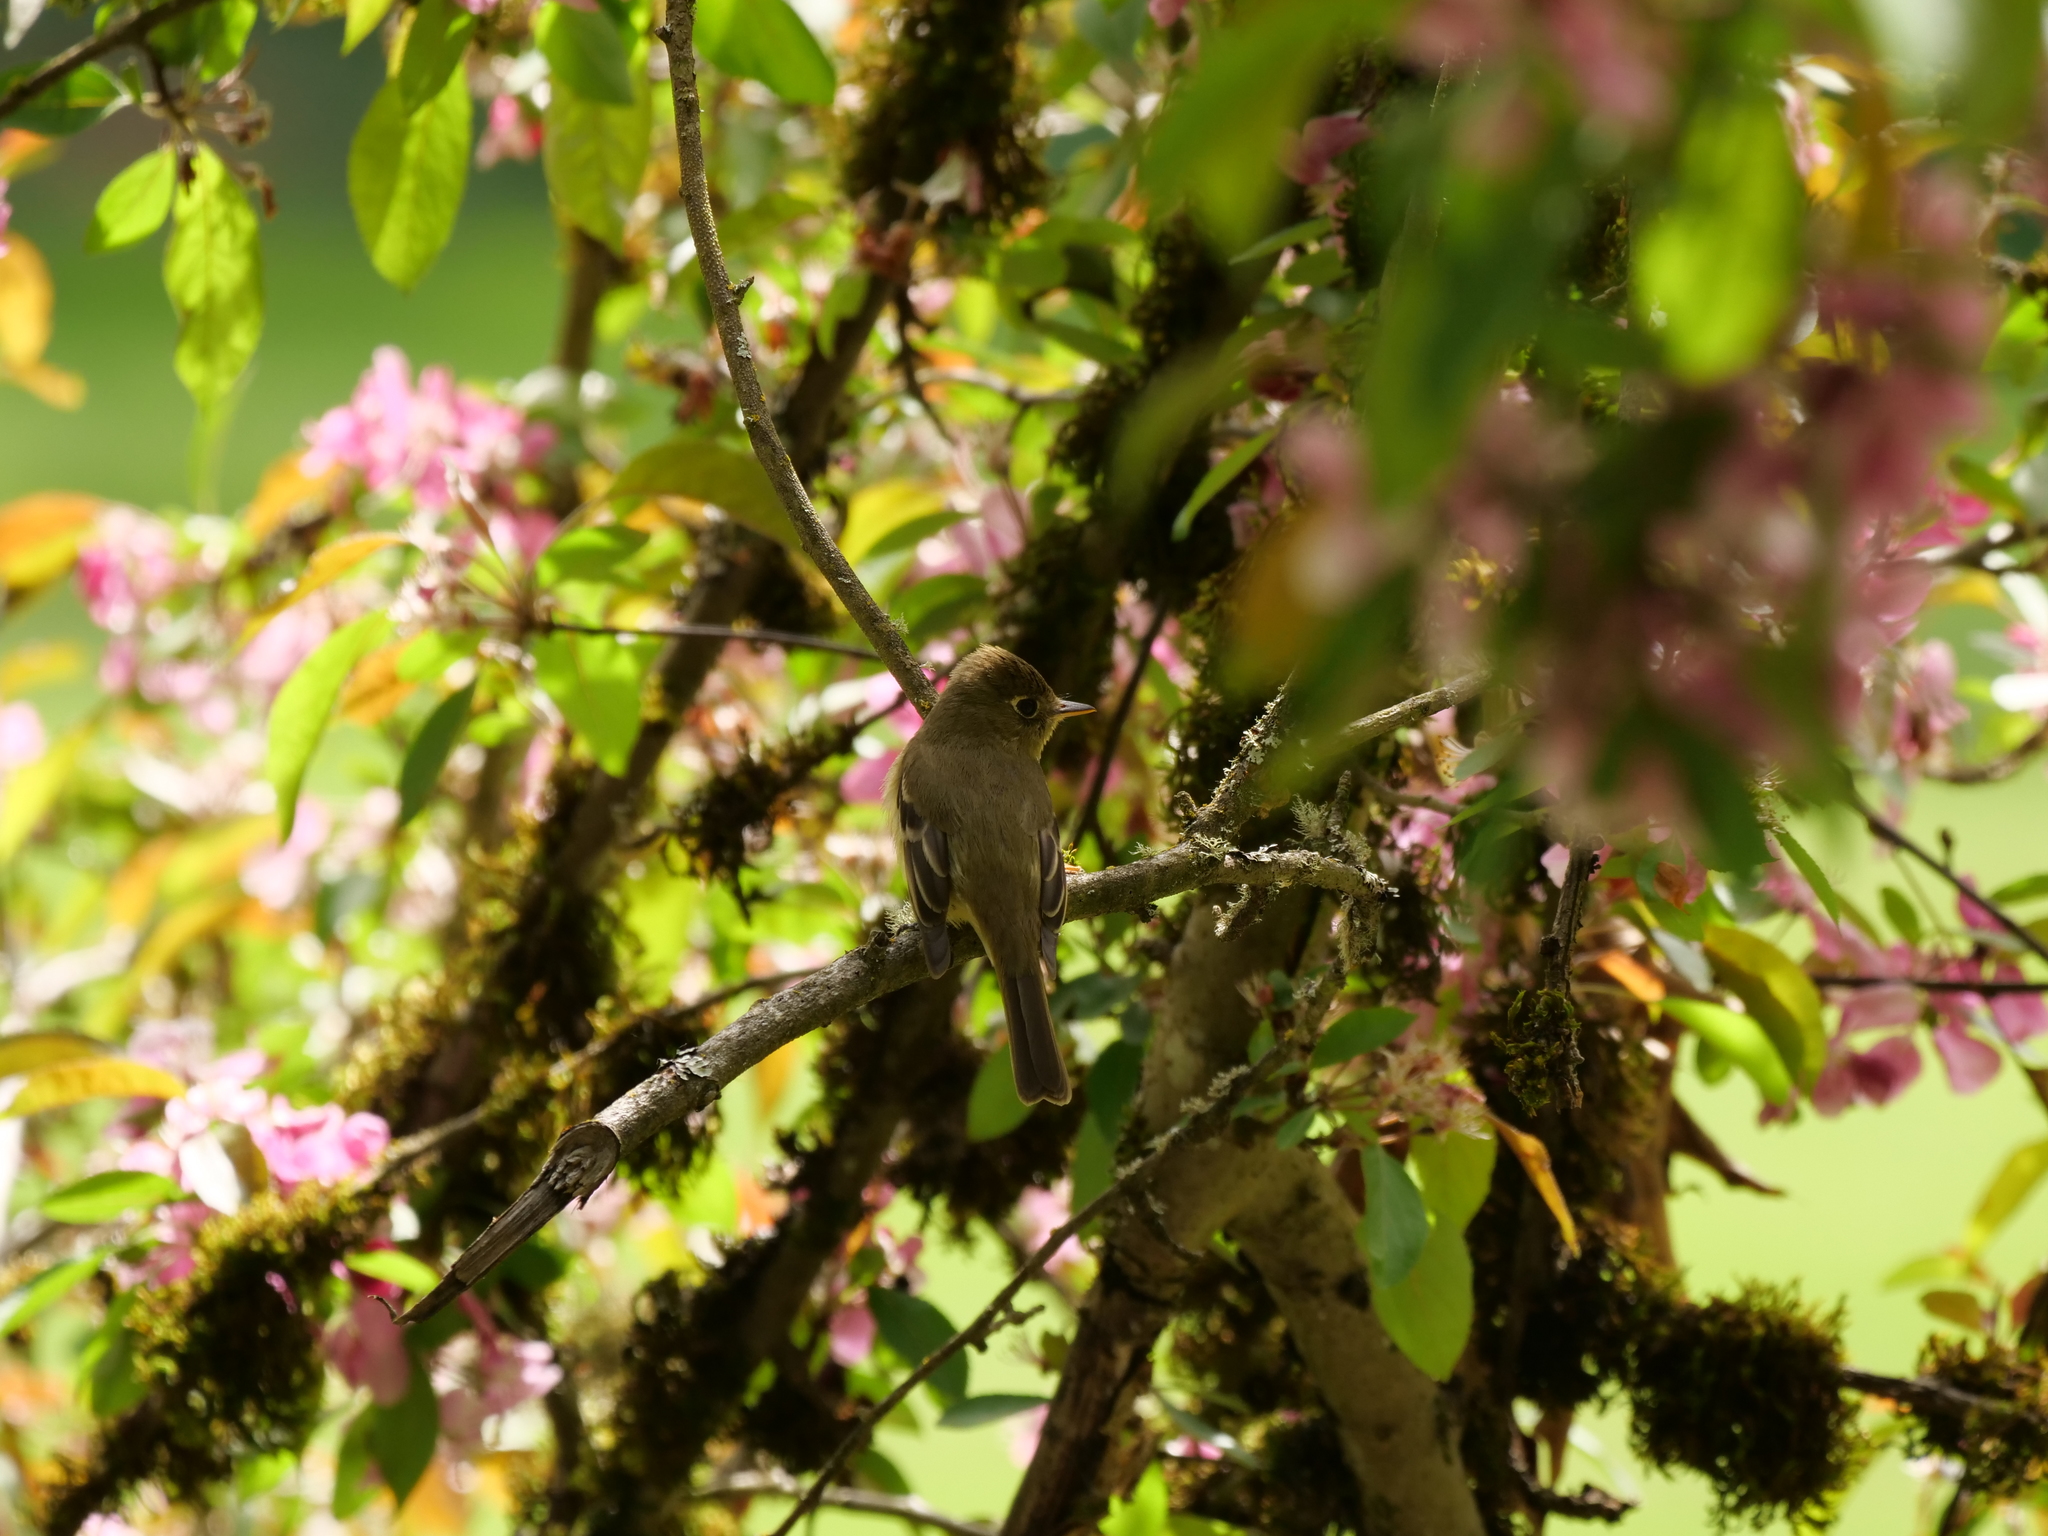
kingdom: Animalia
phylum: Chordata
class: Aves
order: Passeriformes
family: Tyrannidae
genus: Empidonax
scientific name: Empidonax difficilis
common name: Pacific-slope flycatcher
